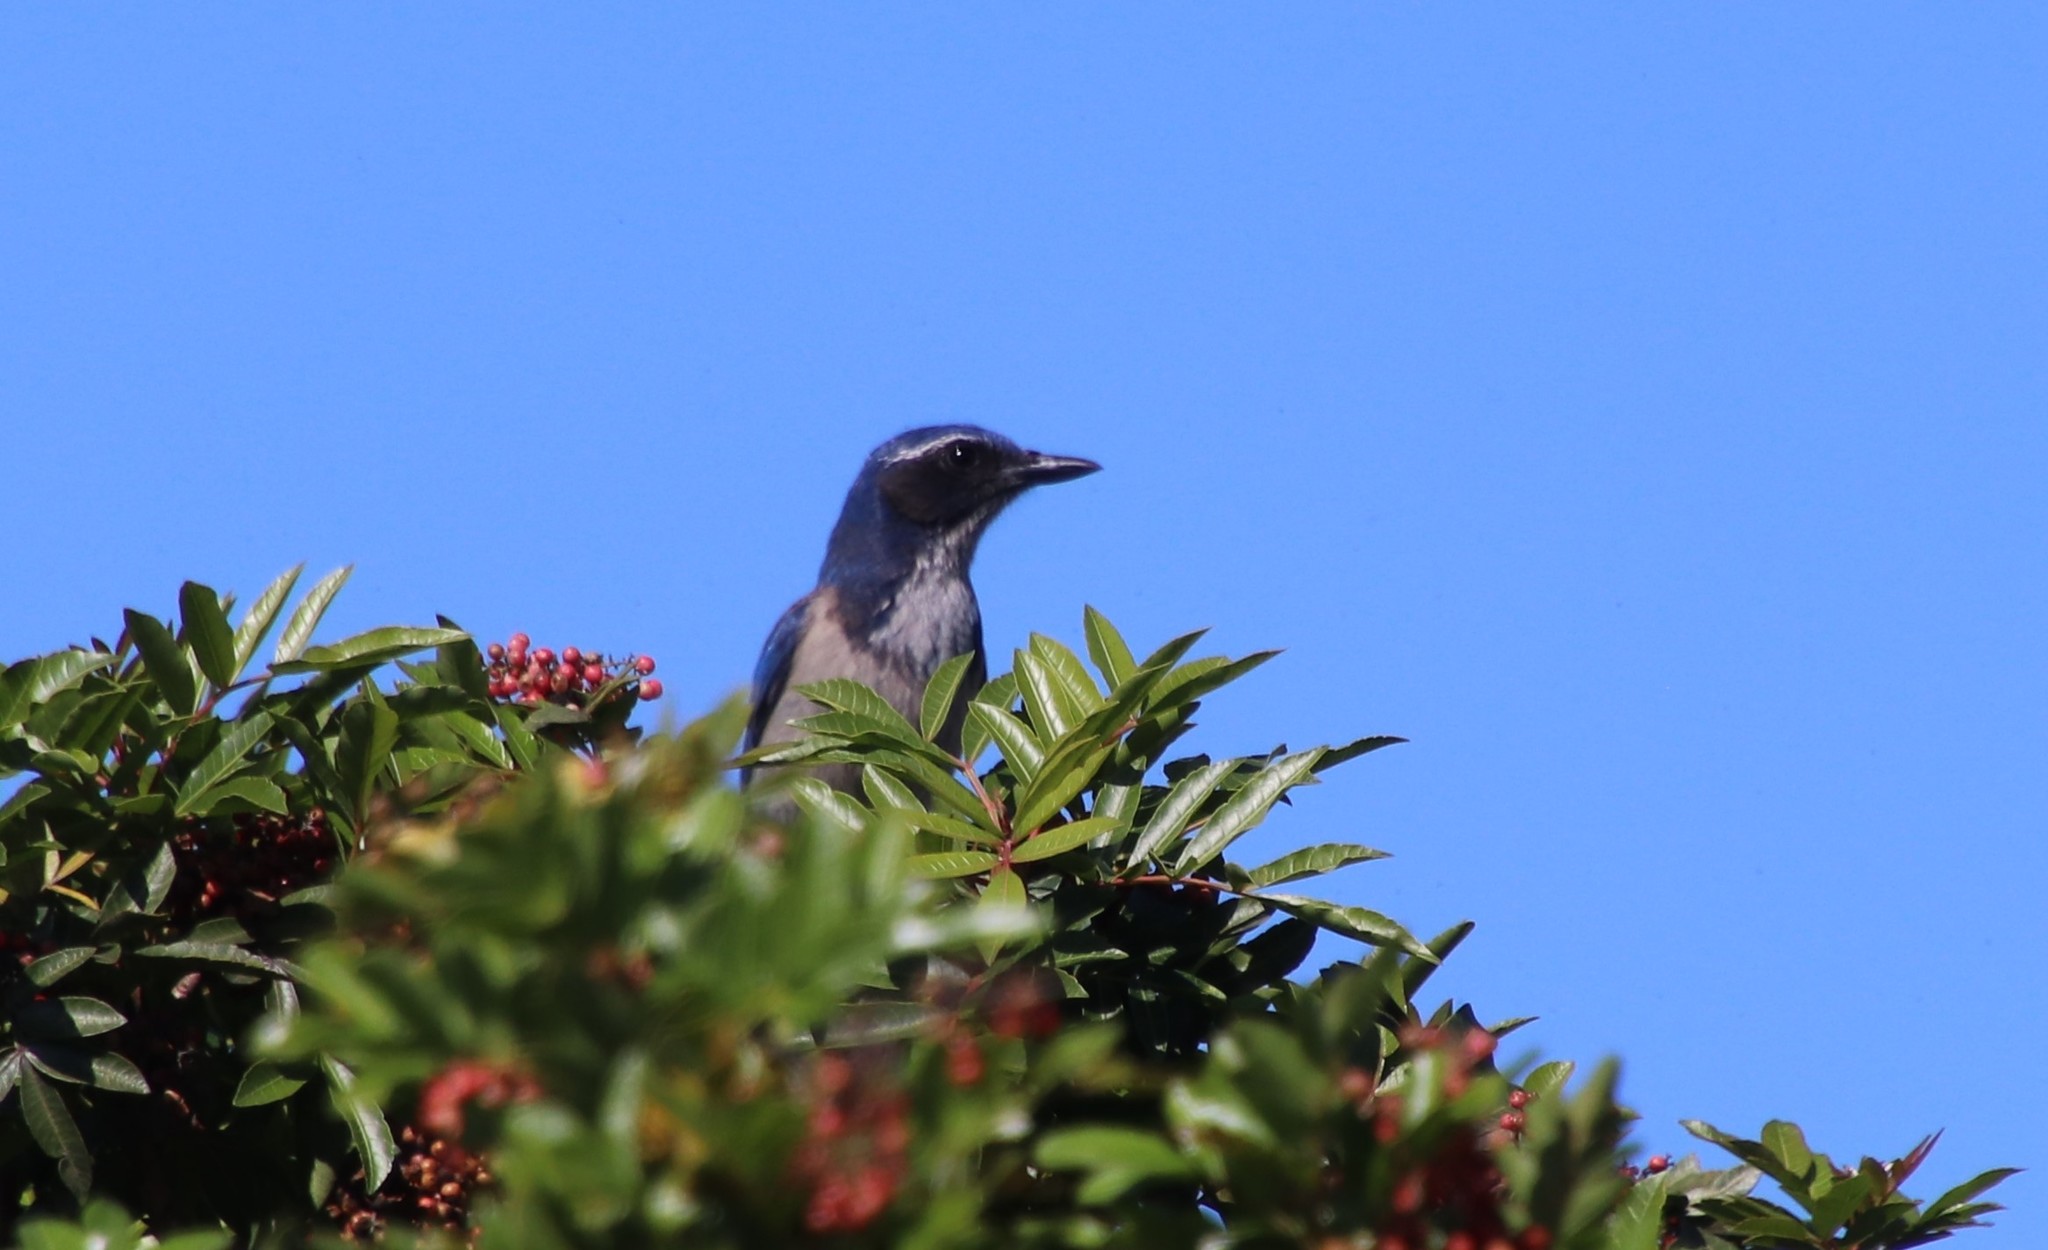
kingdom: Animalia
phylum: Chordata
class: Aves
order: Passeriformes
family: Corvidae
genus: Aphelocoma
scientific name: Aphelocoma californica
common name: California scrub-jay
